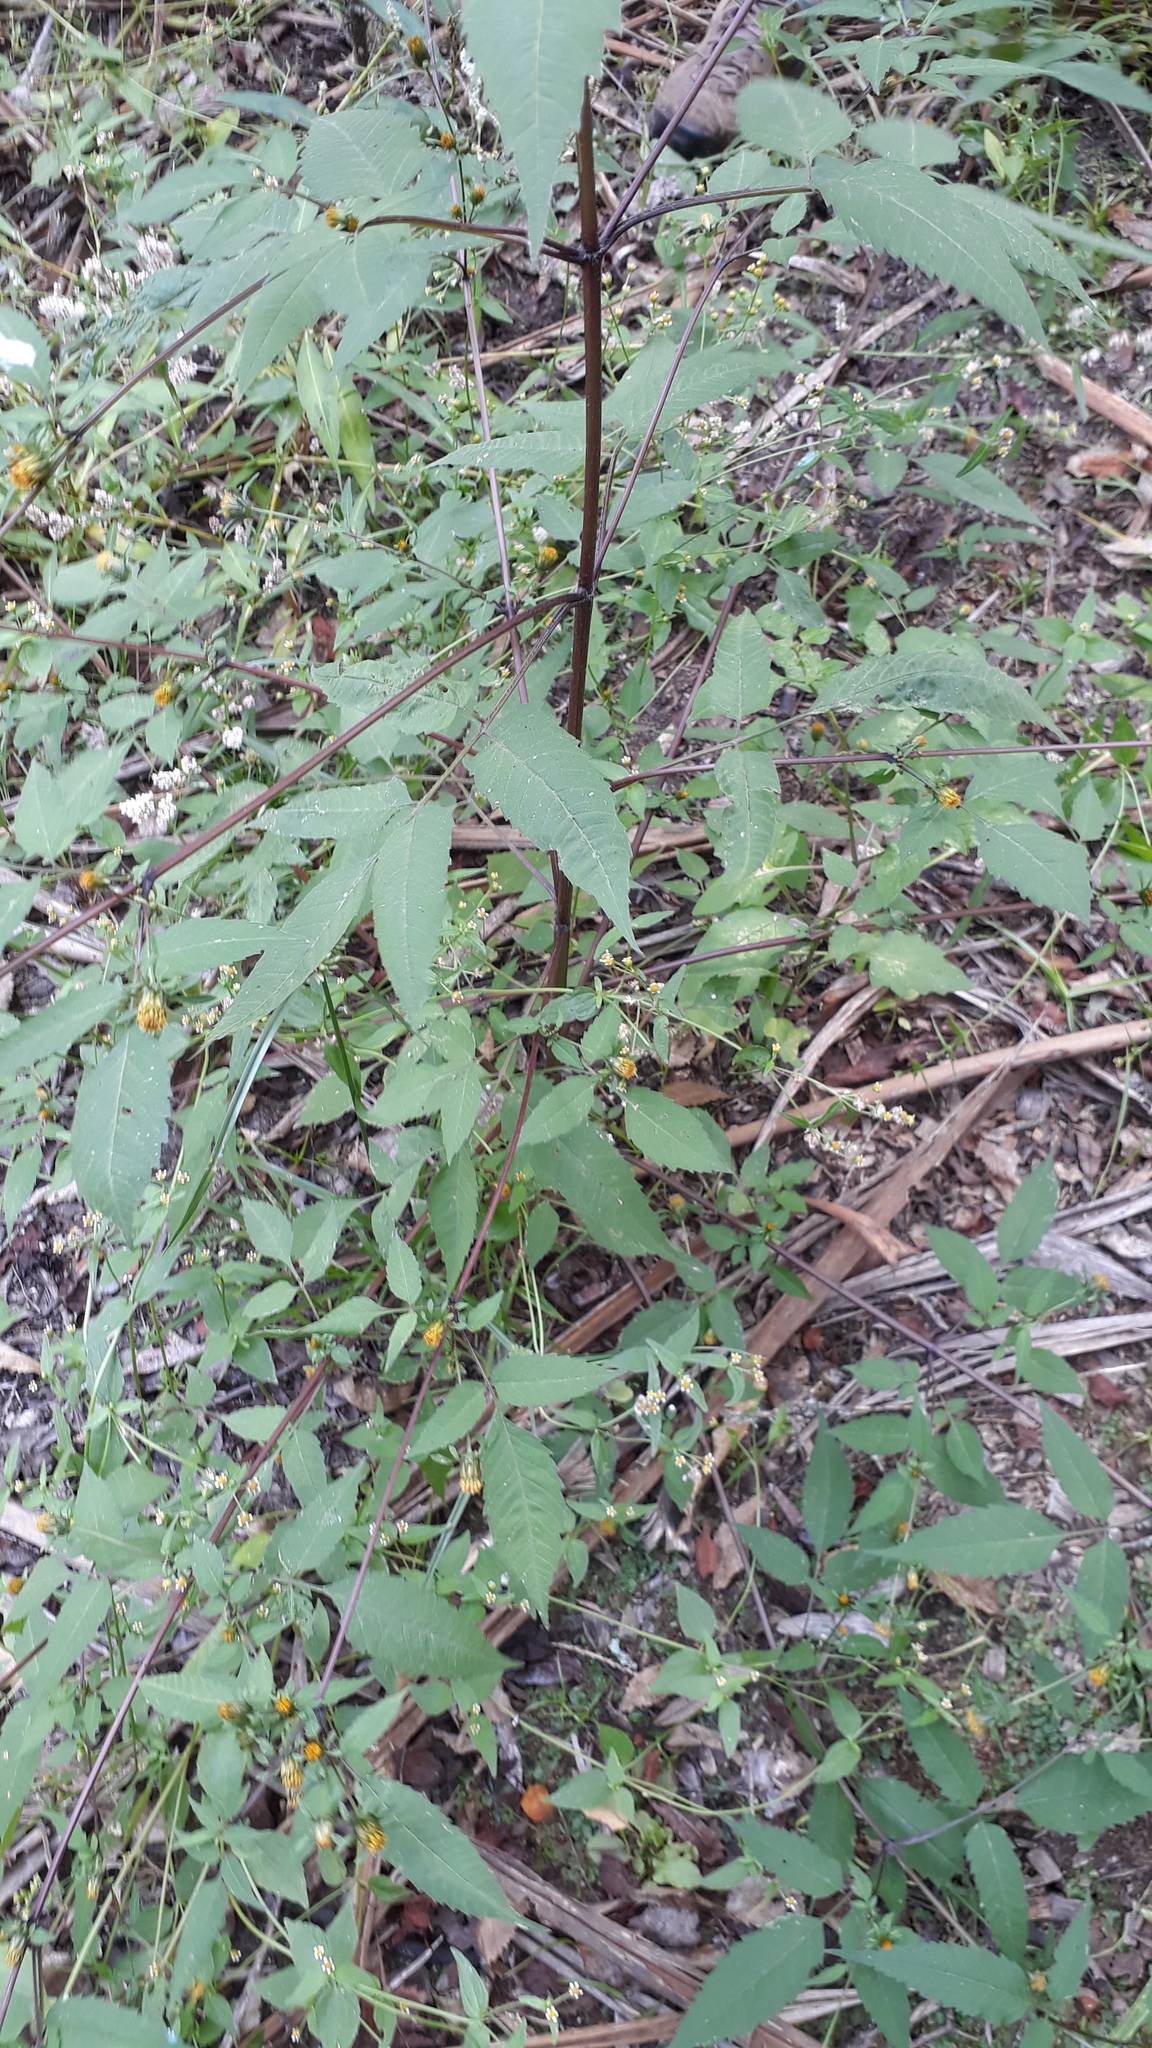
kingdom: Plantae
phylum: Tracheophyta
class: Magnoliopsida
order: Asterales
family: Asteraceae
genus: Bidens
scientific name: Bidens frondosa
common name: Beggarticks
